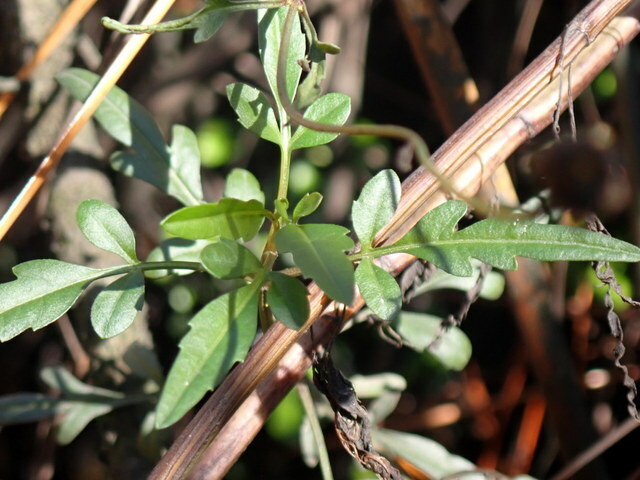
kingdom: Plantae
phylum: Tracheophyta
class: Magnoliopsida
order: Asterales
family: Asteraceae
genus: Bidens
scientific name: Bidens mitis
